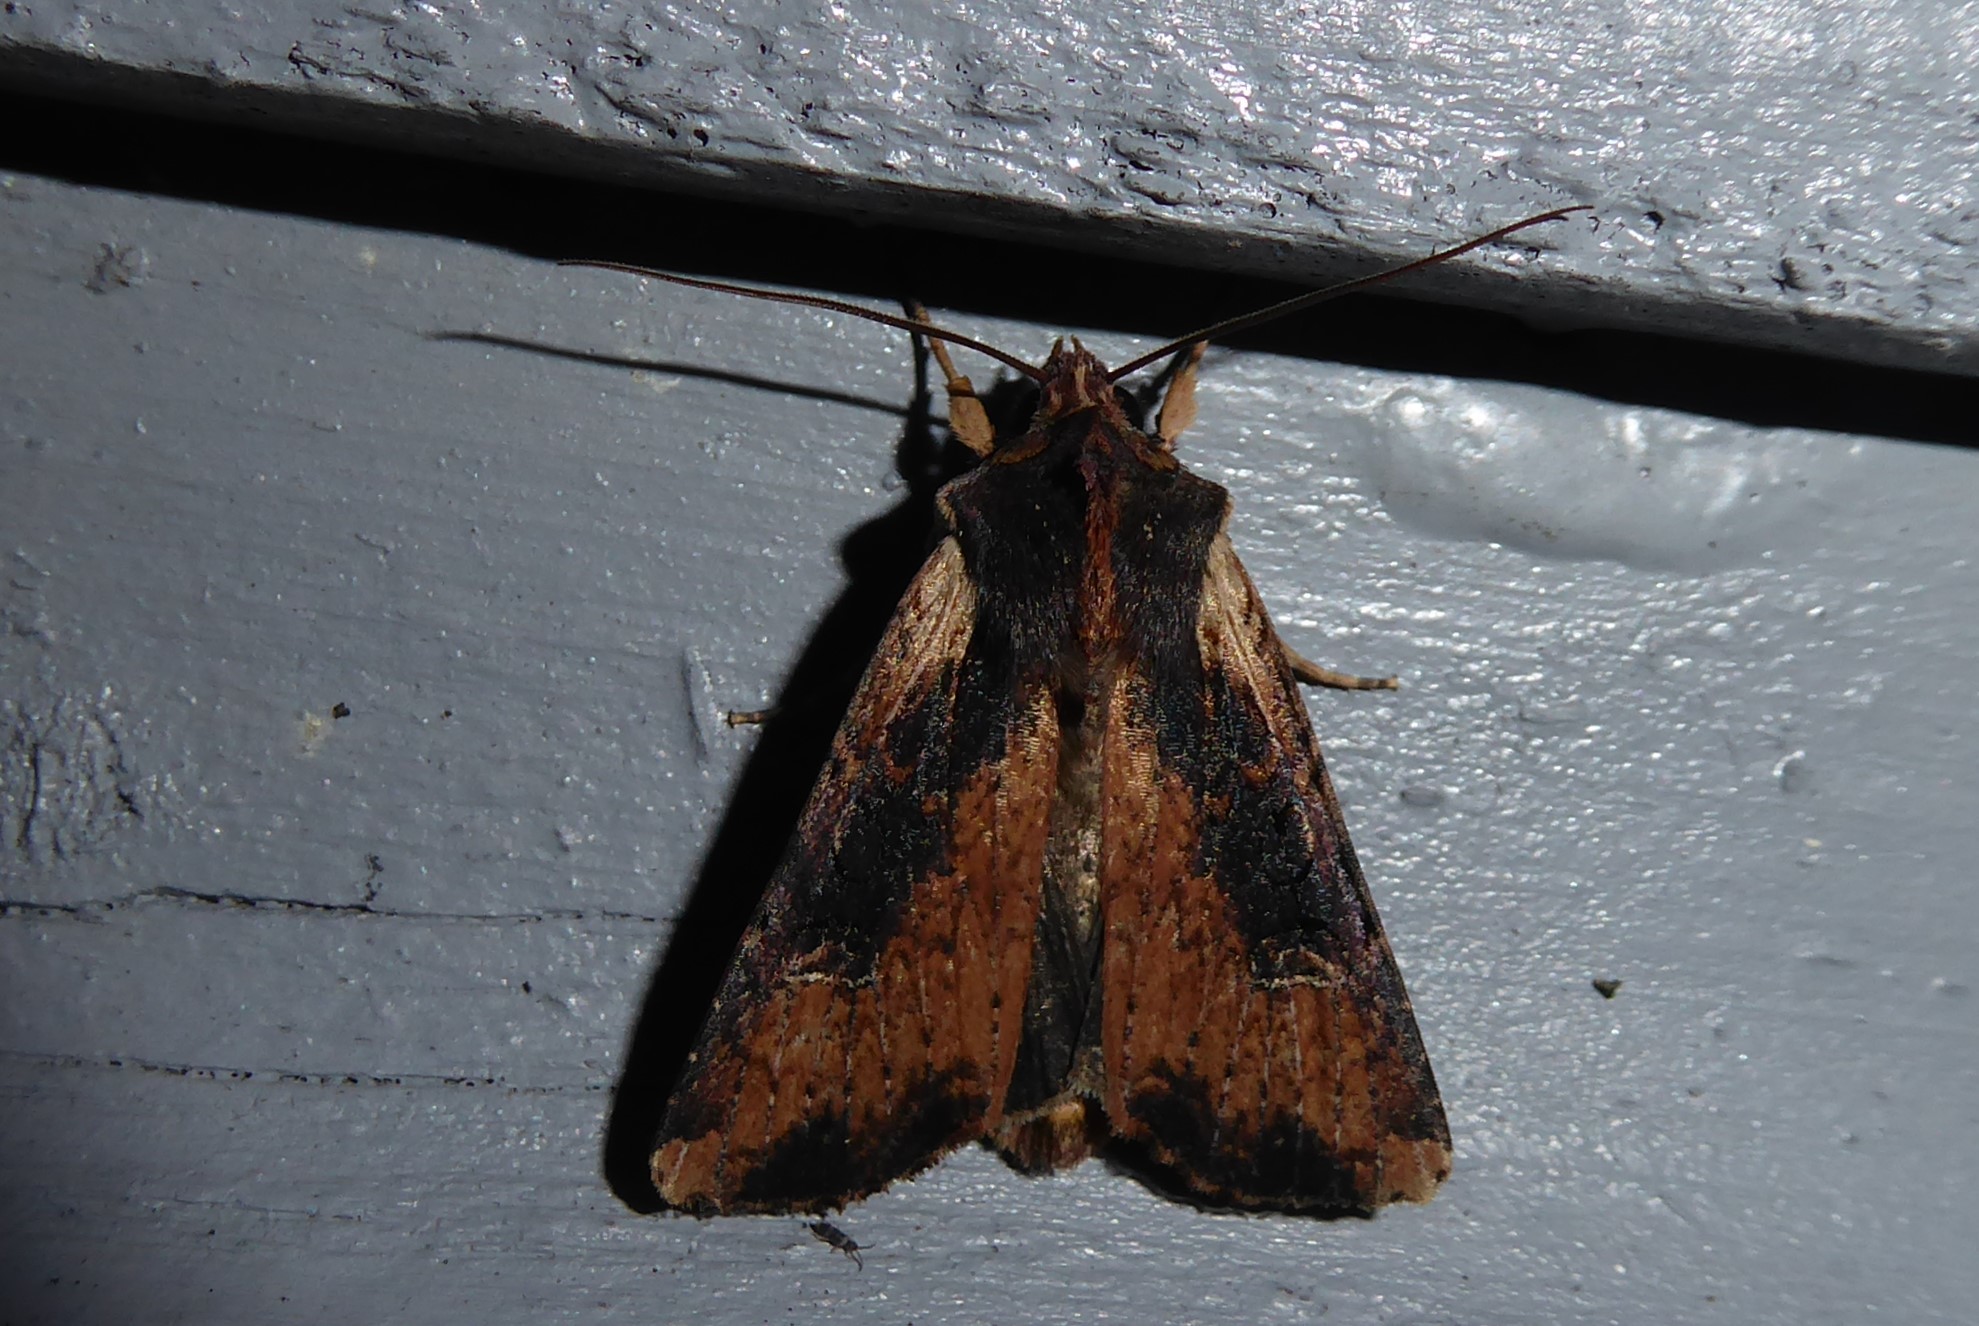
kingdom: Animalia
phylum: Arthropoda
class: Insecta
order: Lepidoptera
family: Noctuidae
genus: Ichneutica
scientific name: Ichneutica omoplaca
